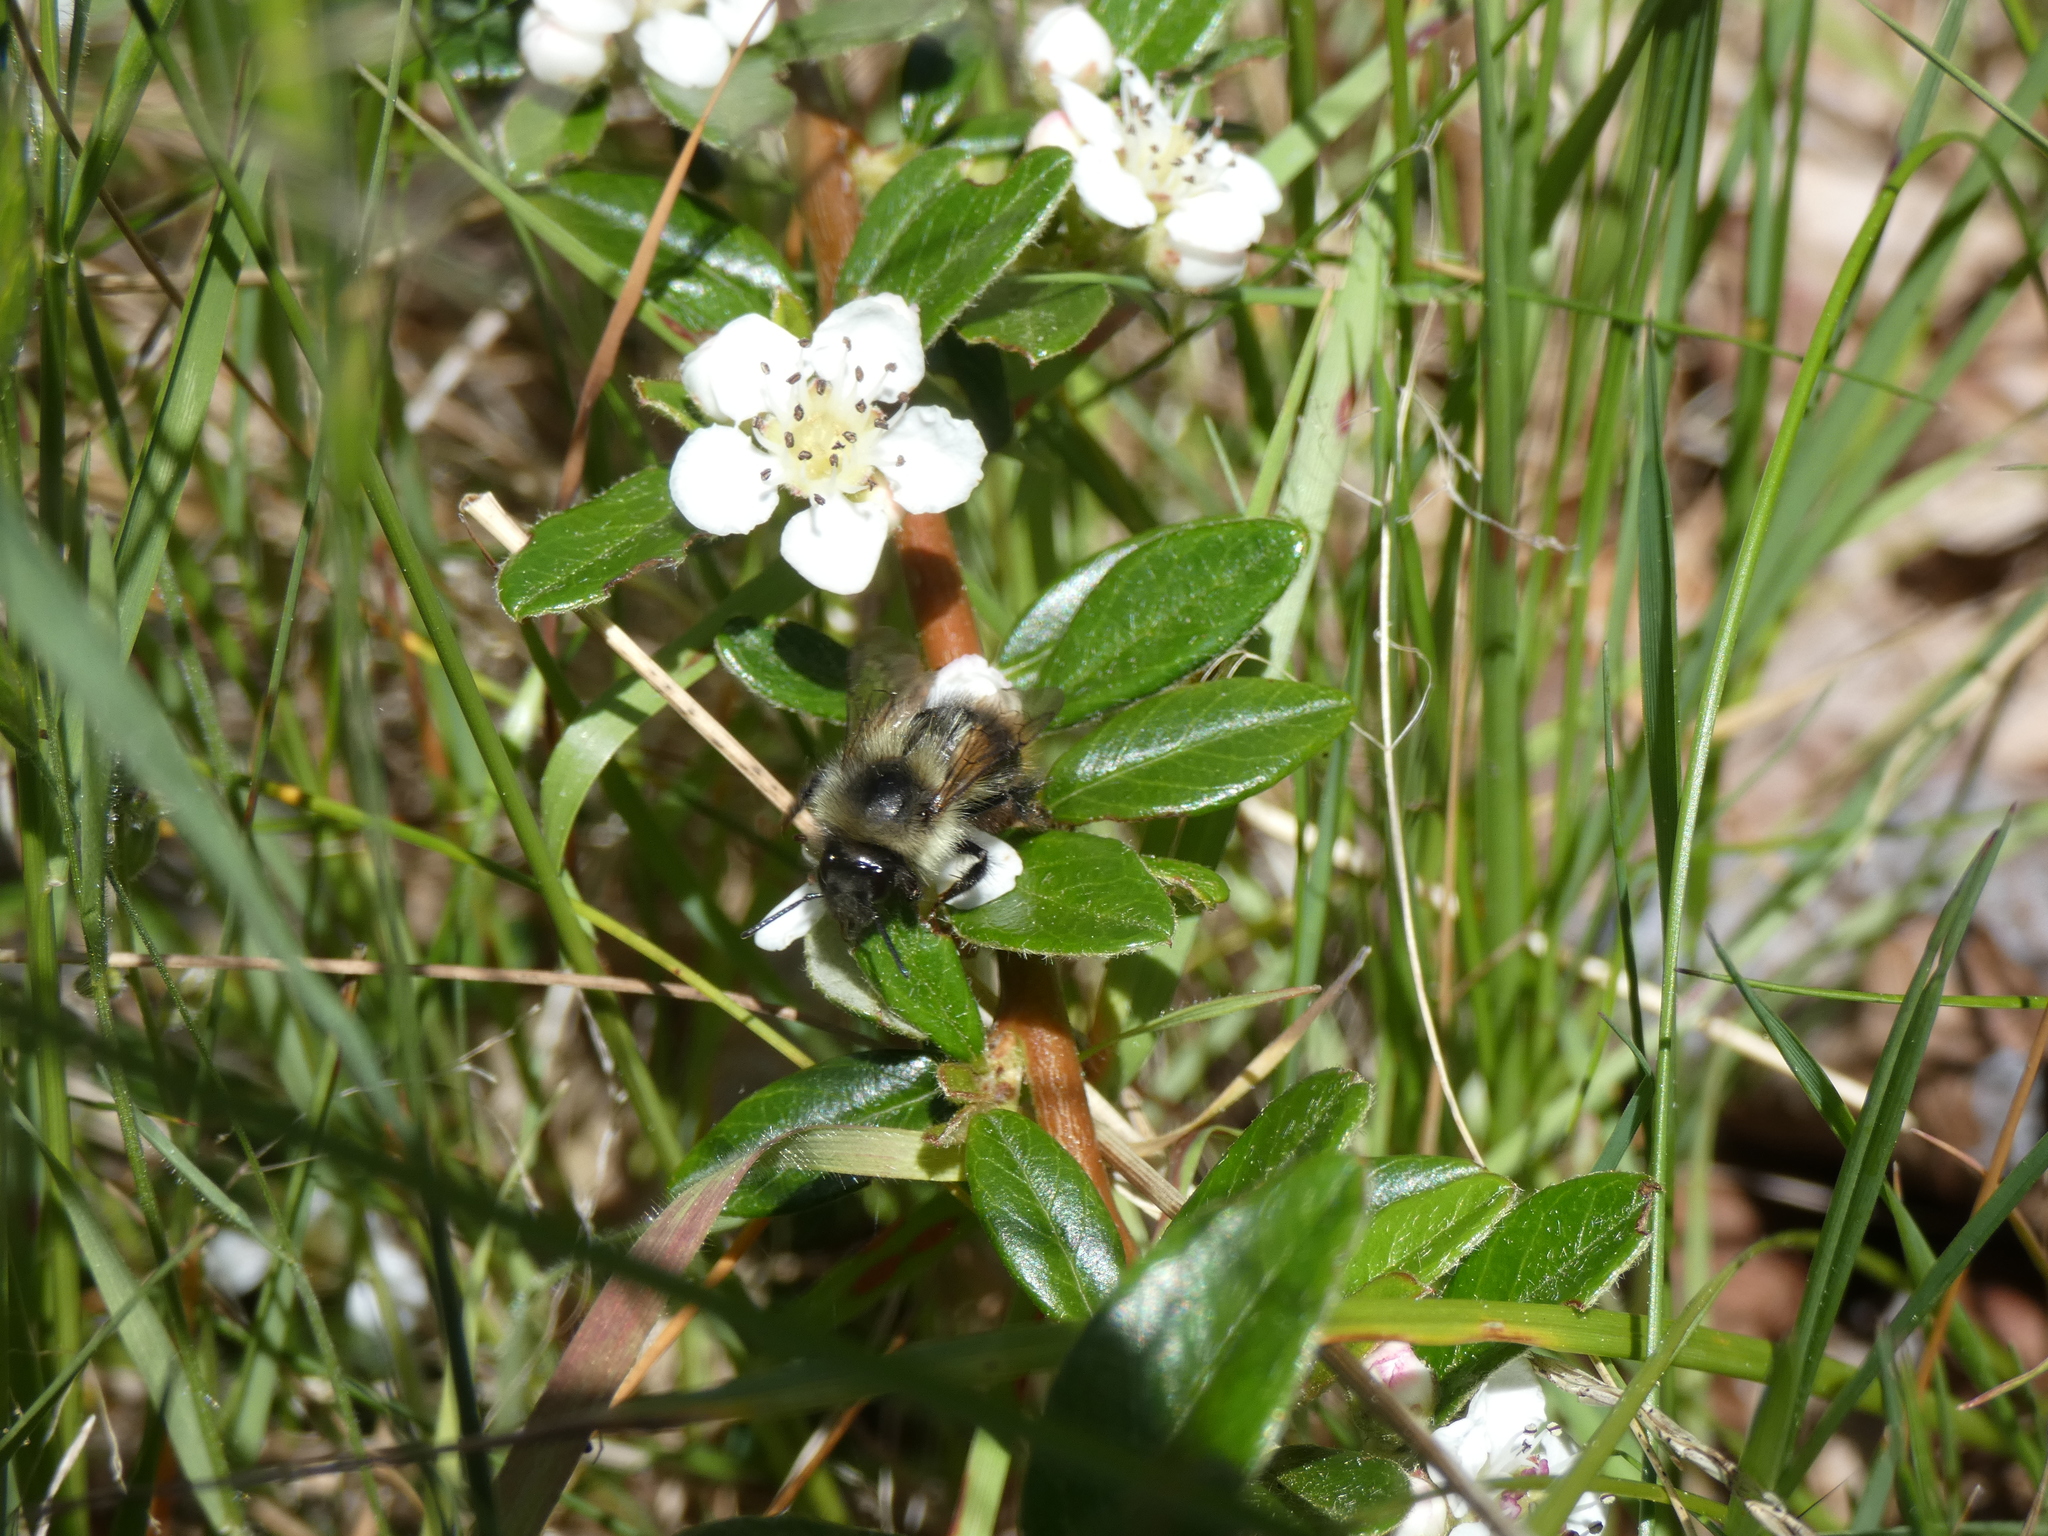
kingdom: Animalia
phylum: Arthropoda
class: Insecta
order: Hymenoptera
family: Apidae
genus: Bombus
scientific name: Bombus melanopygus
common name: Black tail bumble bee
